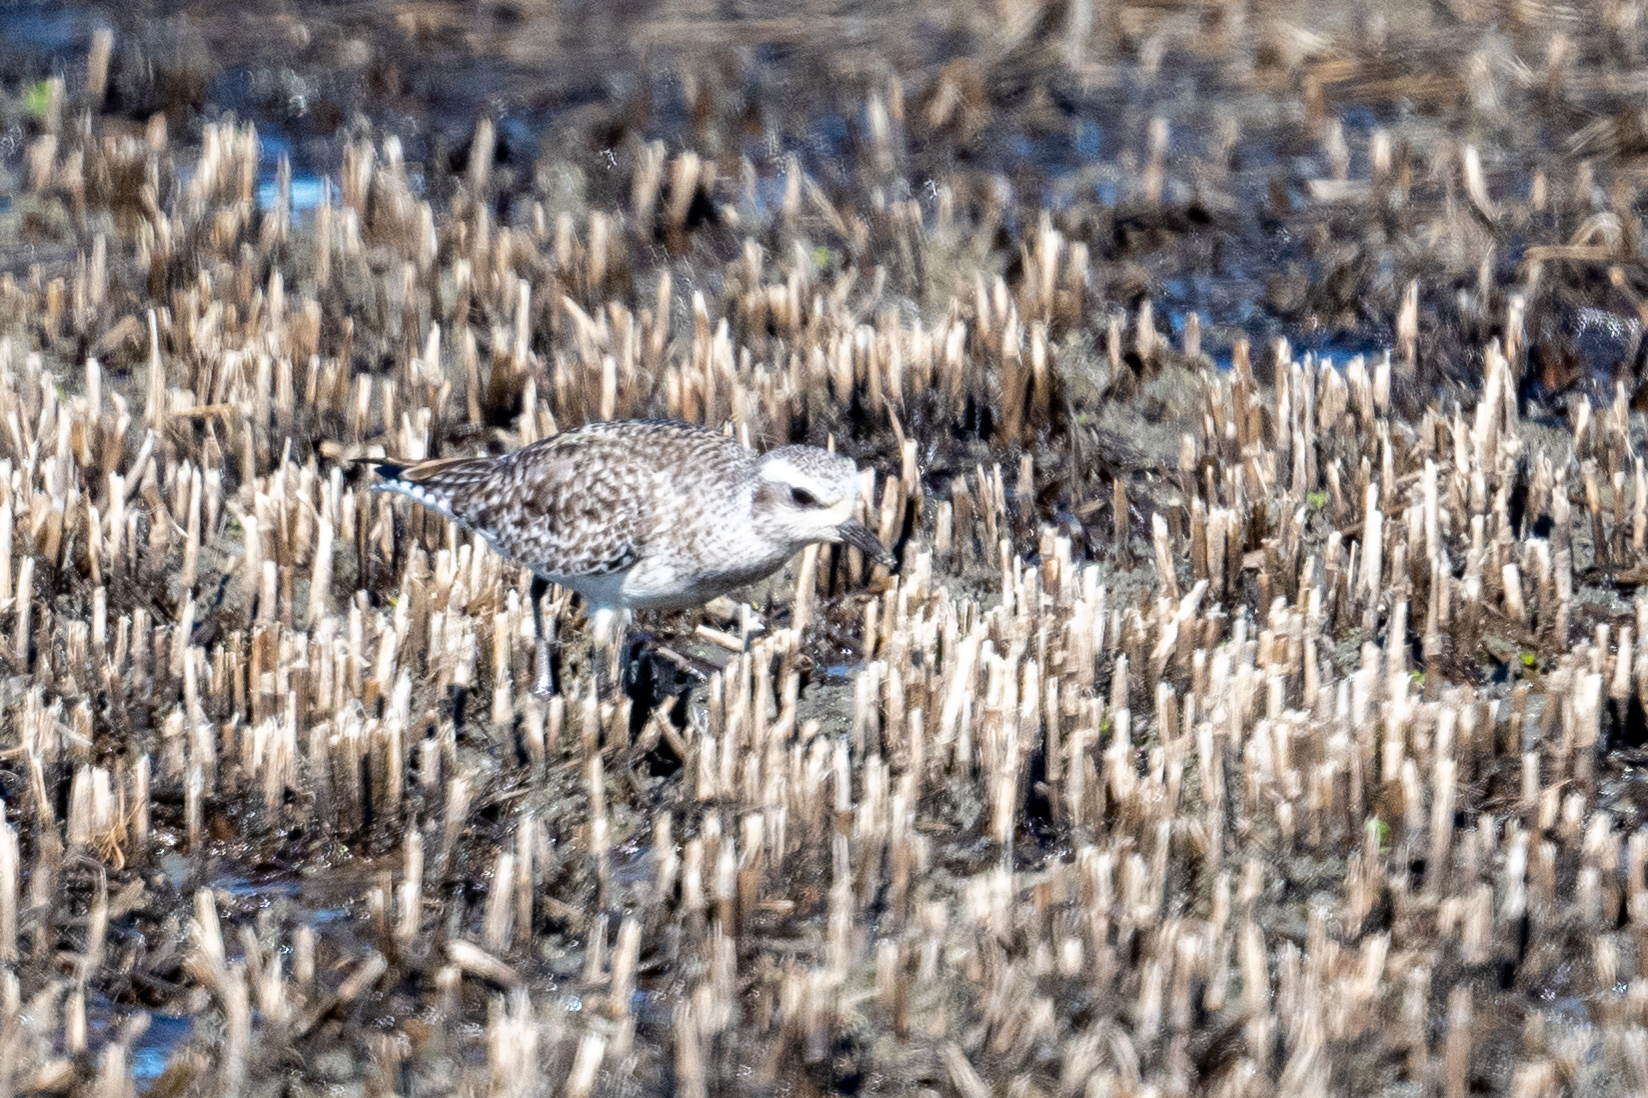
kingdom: Animalia
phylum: Chordata
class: Aves
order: Charadriiformes
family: Charadriidae
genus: Pluvialis
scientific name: Pluvialis squatarola
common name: Grey plover
